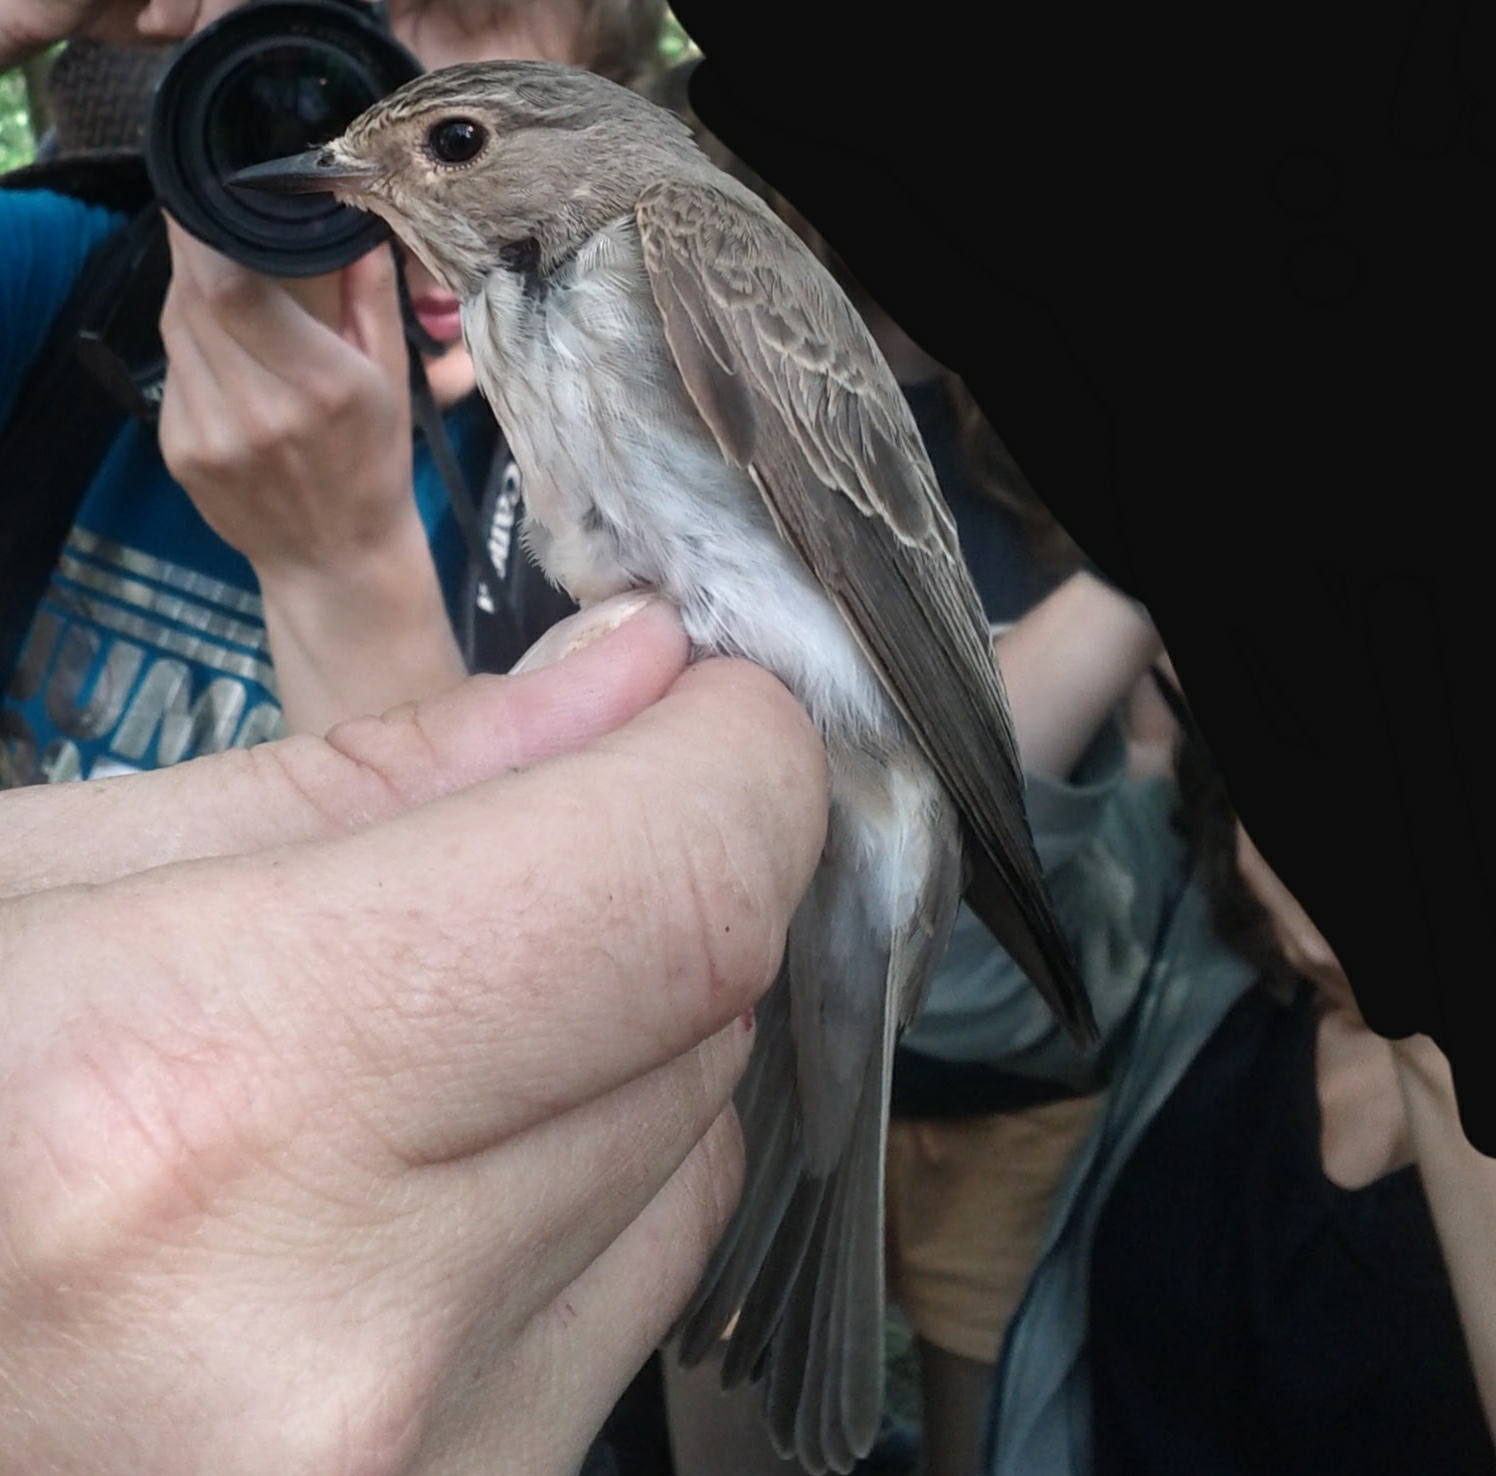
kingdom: Animalia
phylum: Chordata
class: Aves
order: Passeriformes
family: Muscicapidae
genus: Muscicapa
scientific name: Muscicapa striata
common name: Spotted flycatcher
